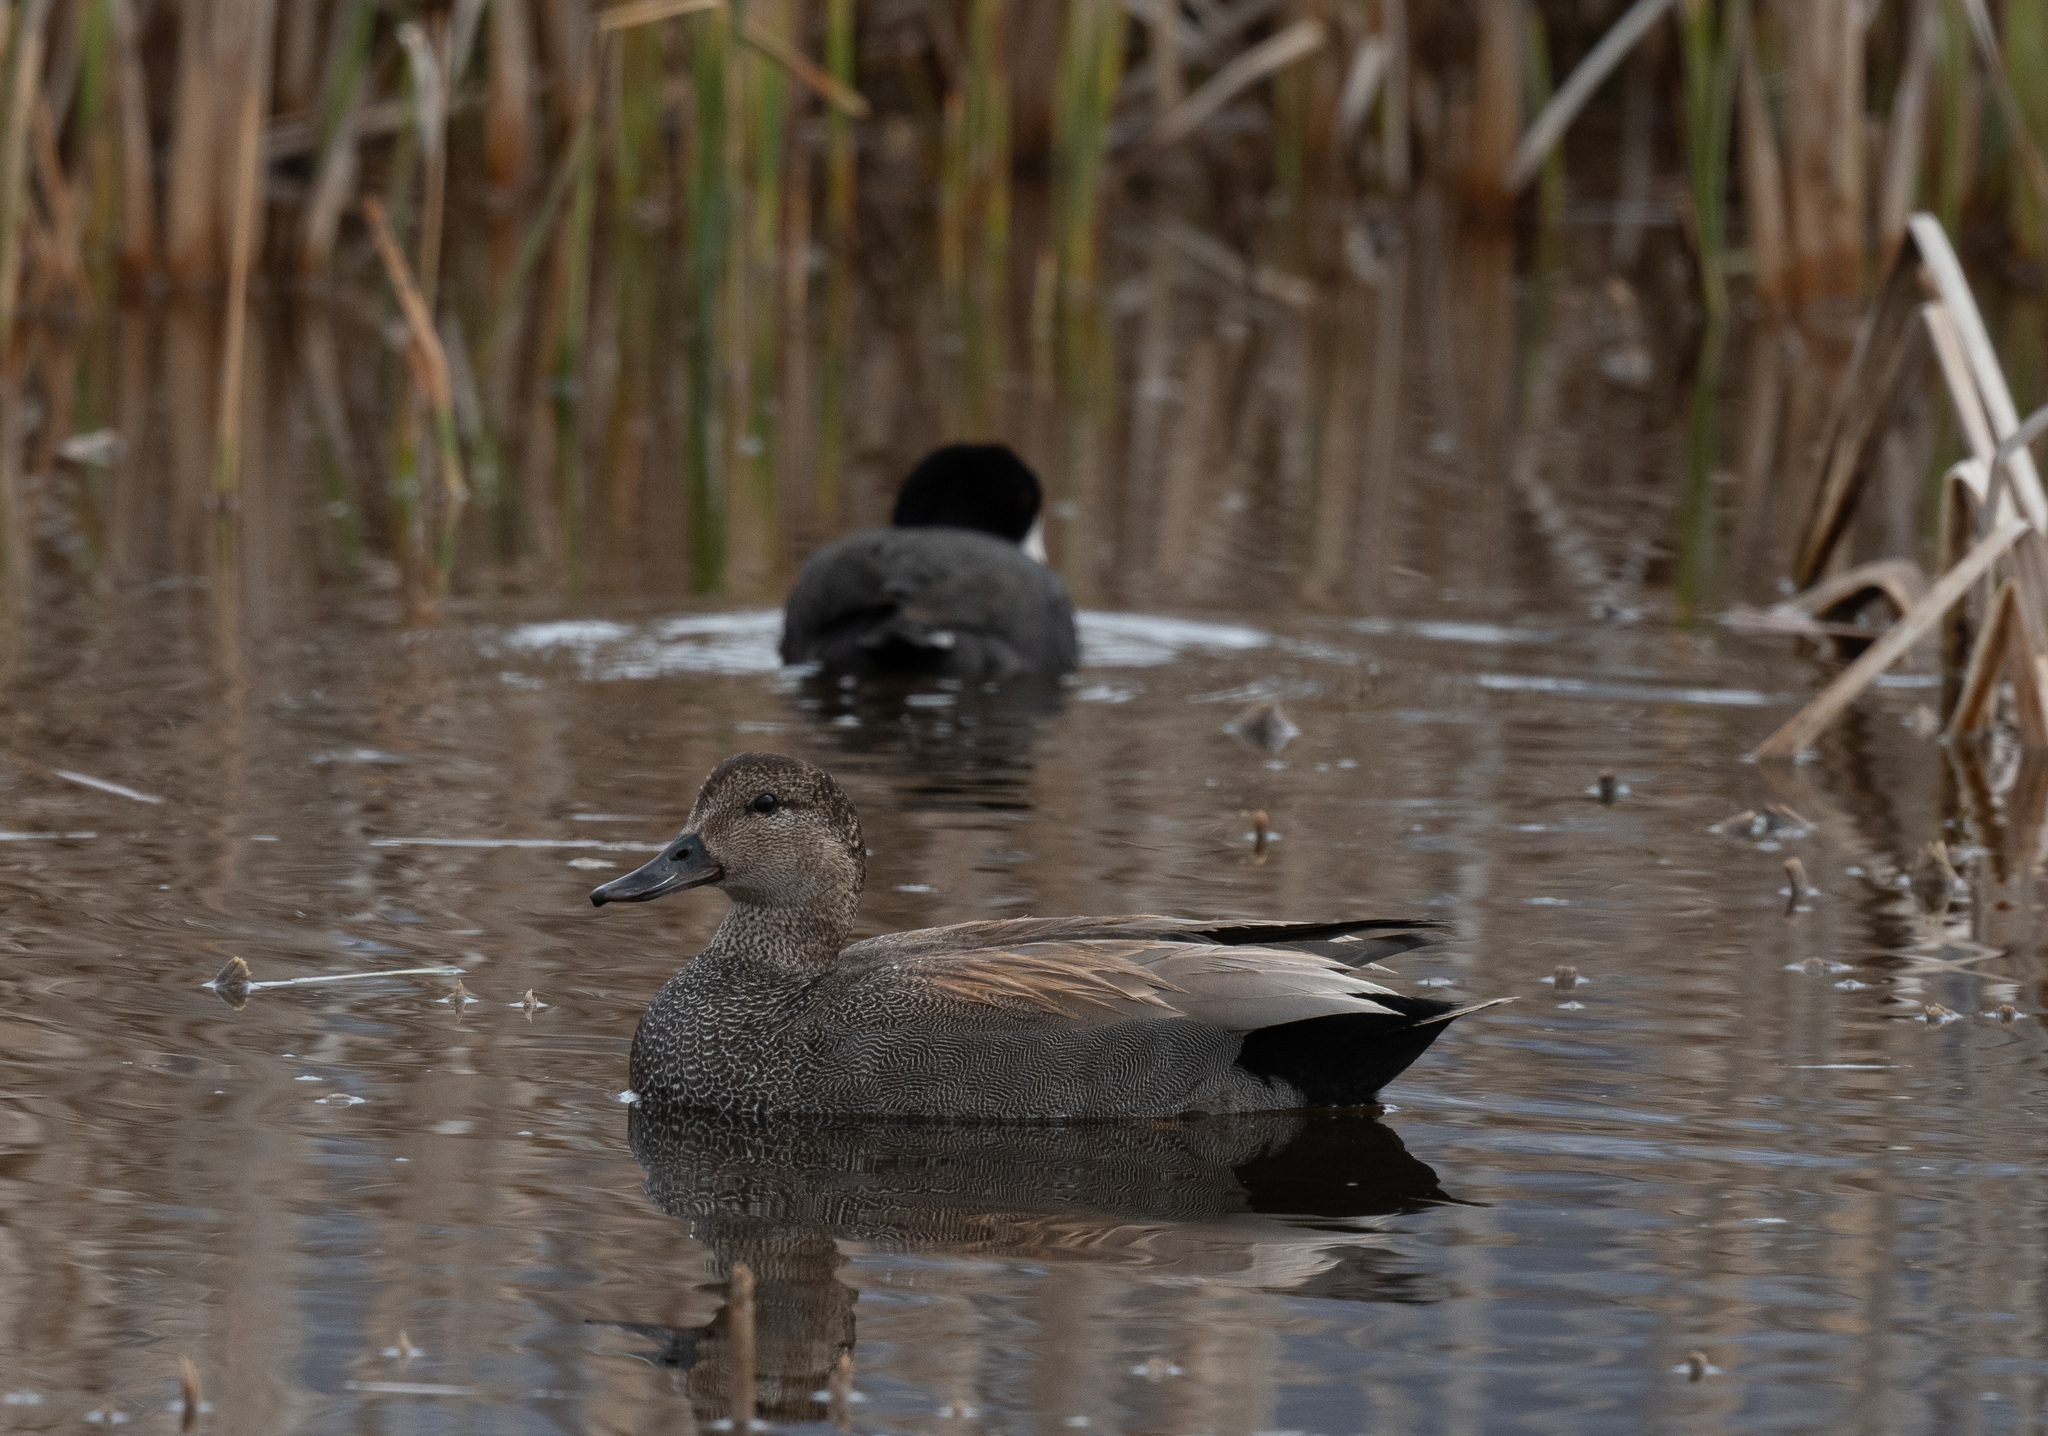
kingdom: Animalia
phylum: Chordata
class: Aves
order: Anseriformes
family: Anatidae
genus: Mareca
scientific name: Mareca strepera
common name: Gadwall
